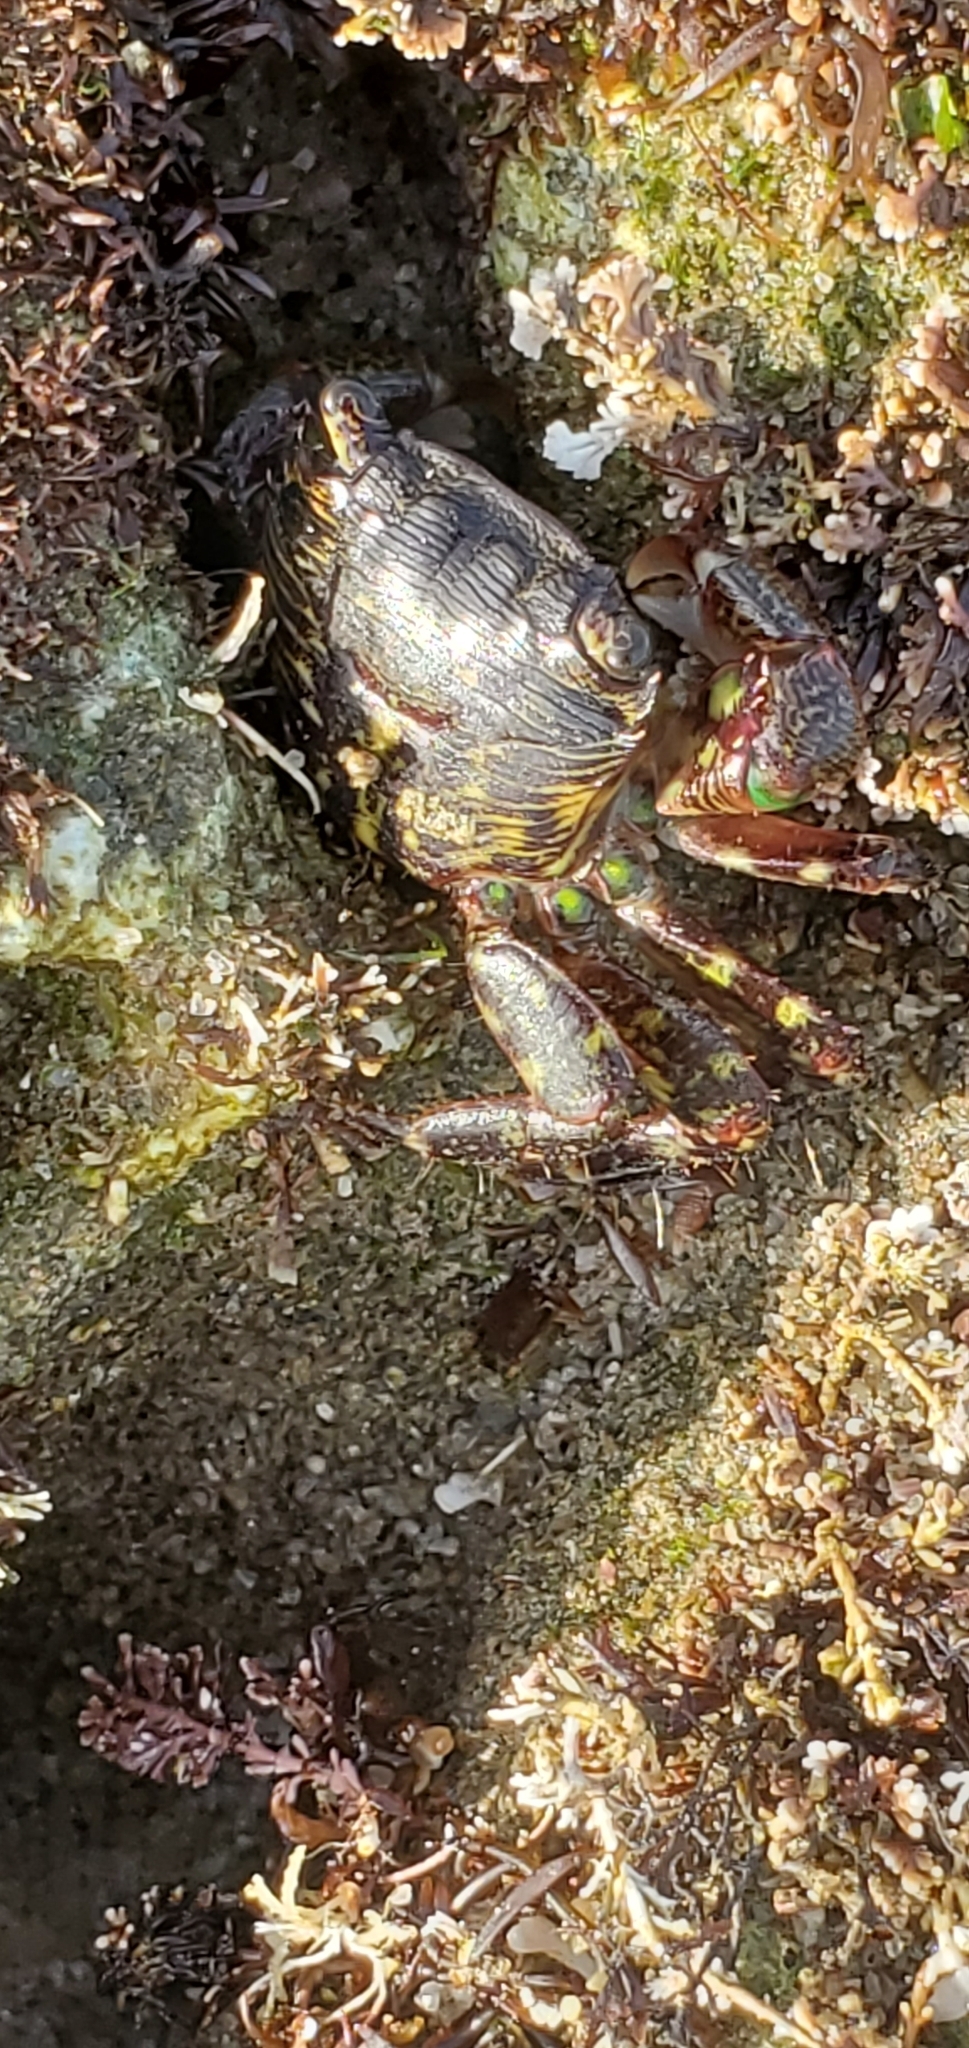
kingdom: Animalia
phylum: Arthropoda
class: Malacostraca
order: Decapoda
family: Grapsidae
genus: Pachygrapsus
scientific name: Pachygrapsus crassipes
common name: Striped shore crab
